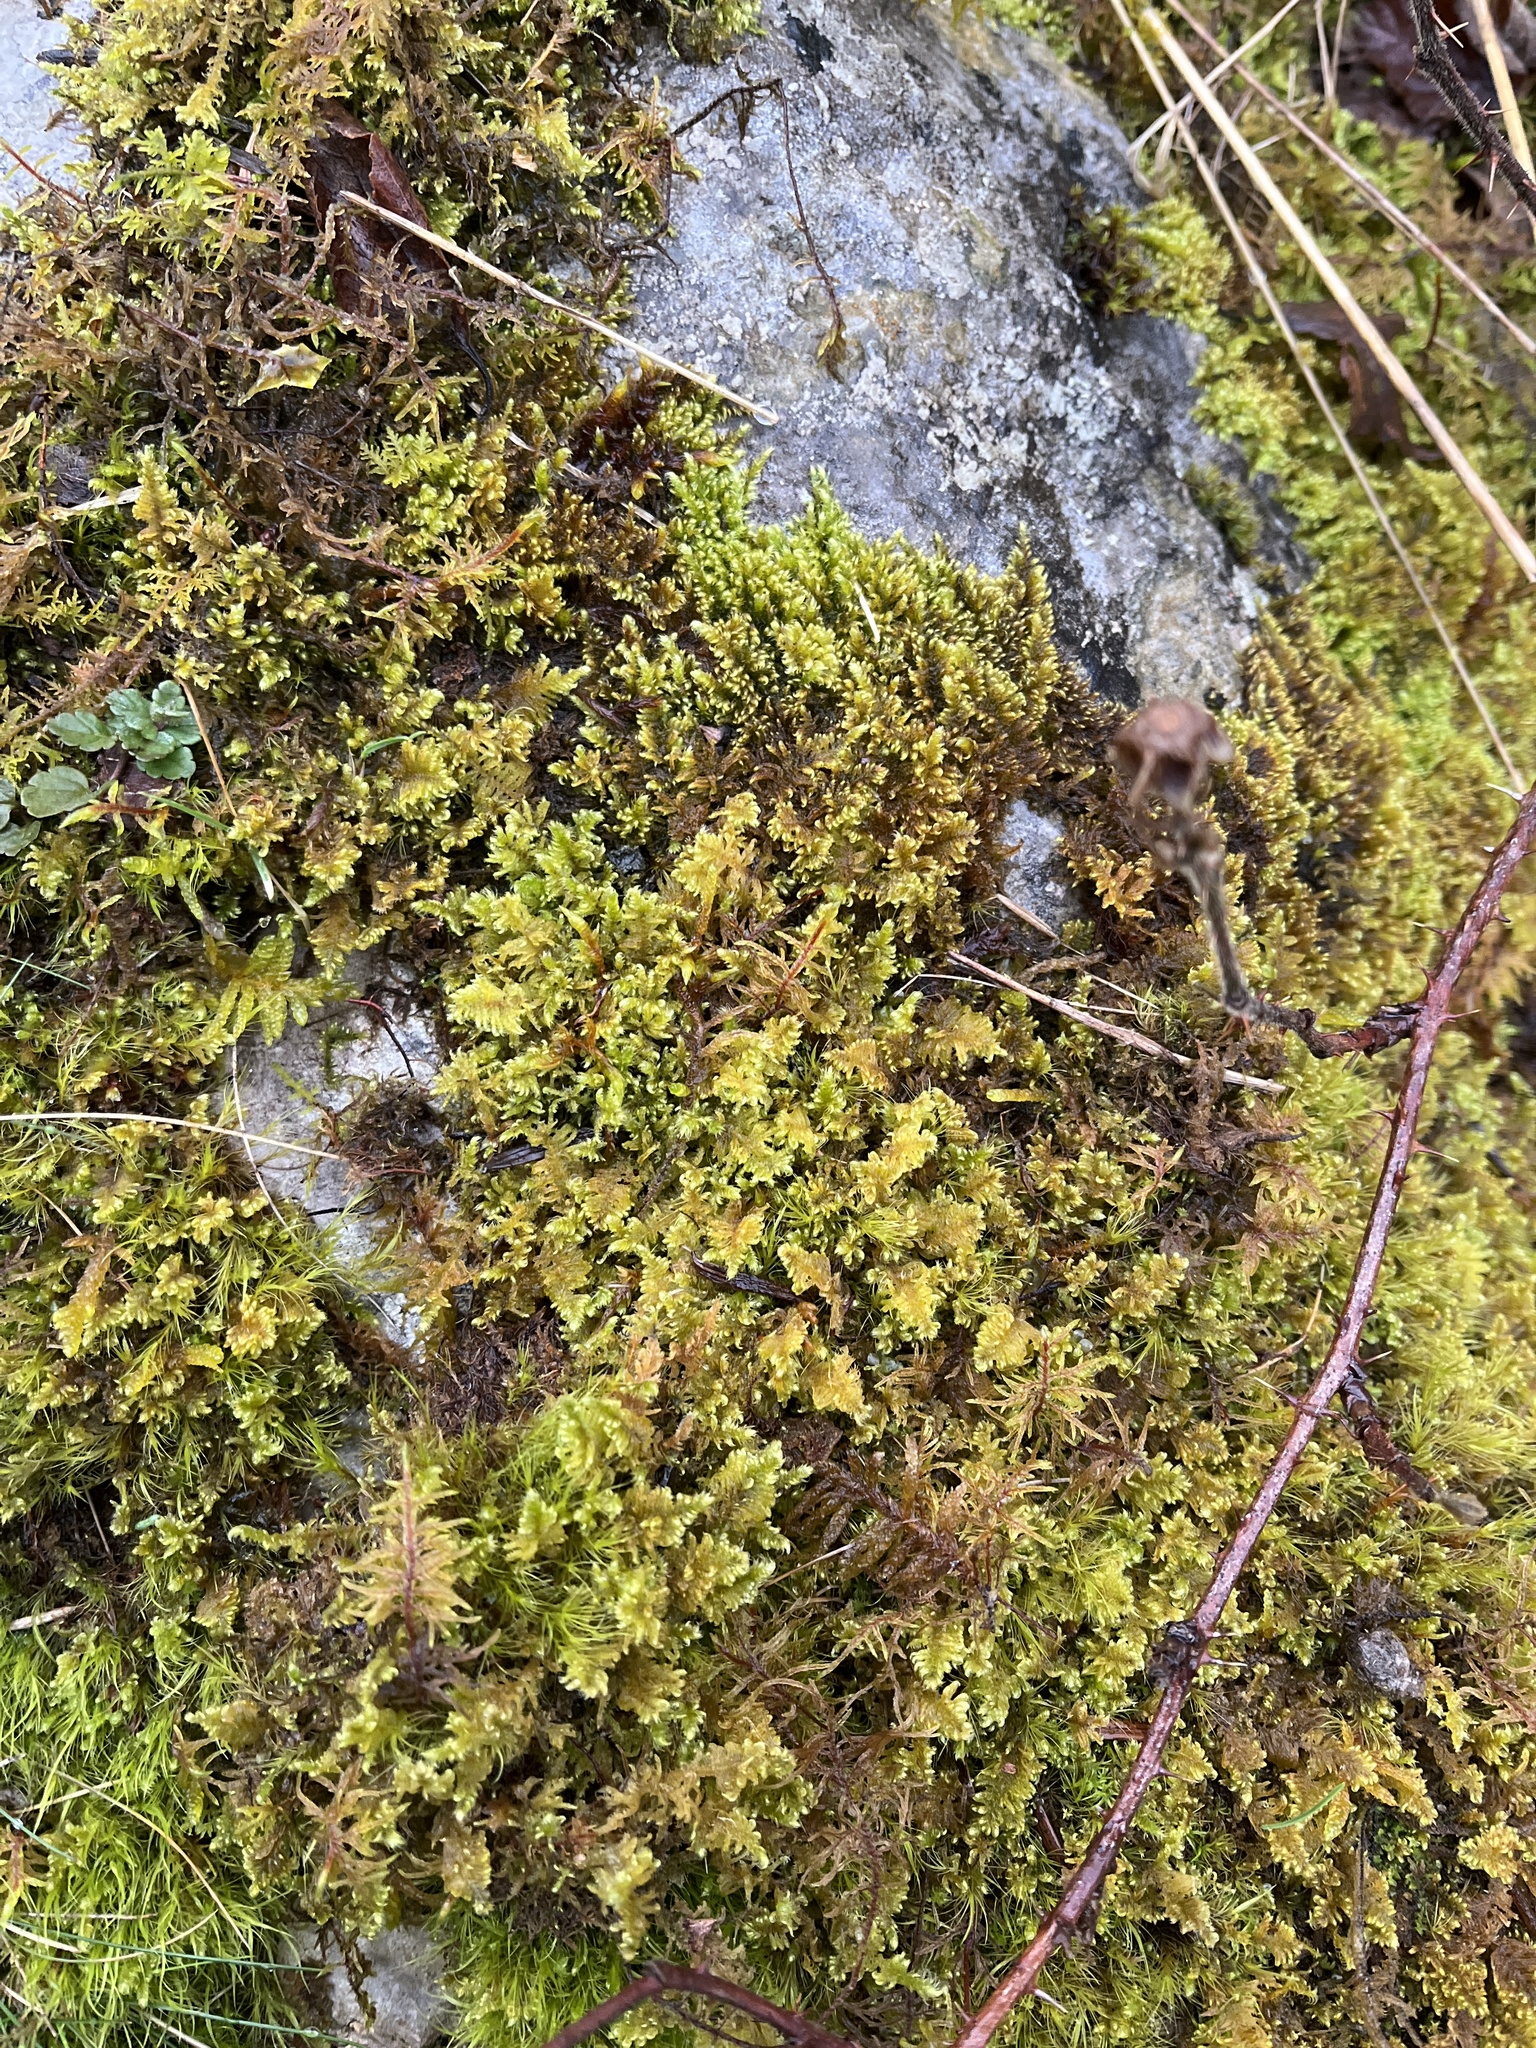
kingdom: Plantae
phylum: Bryophyta
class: Bryopsida
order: Hypnales
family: Myuriaceae
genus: Ctenidium
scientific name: Ctenidium molluscum
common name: Chalk comb-moss
